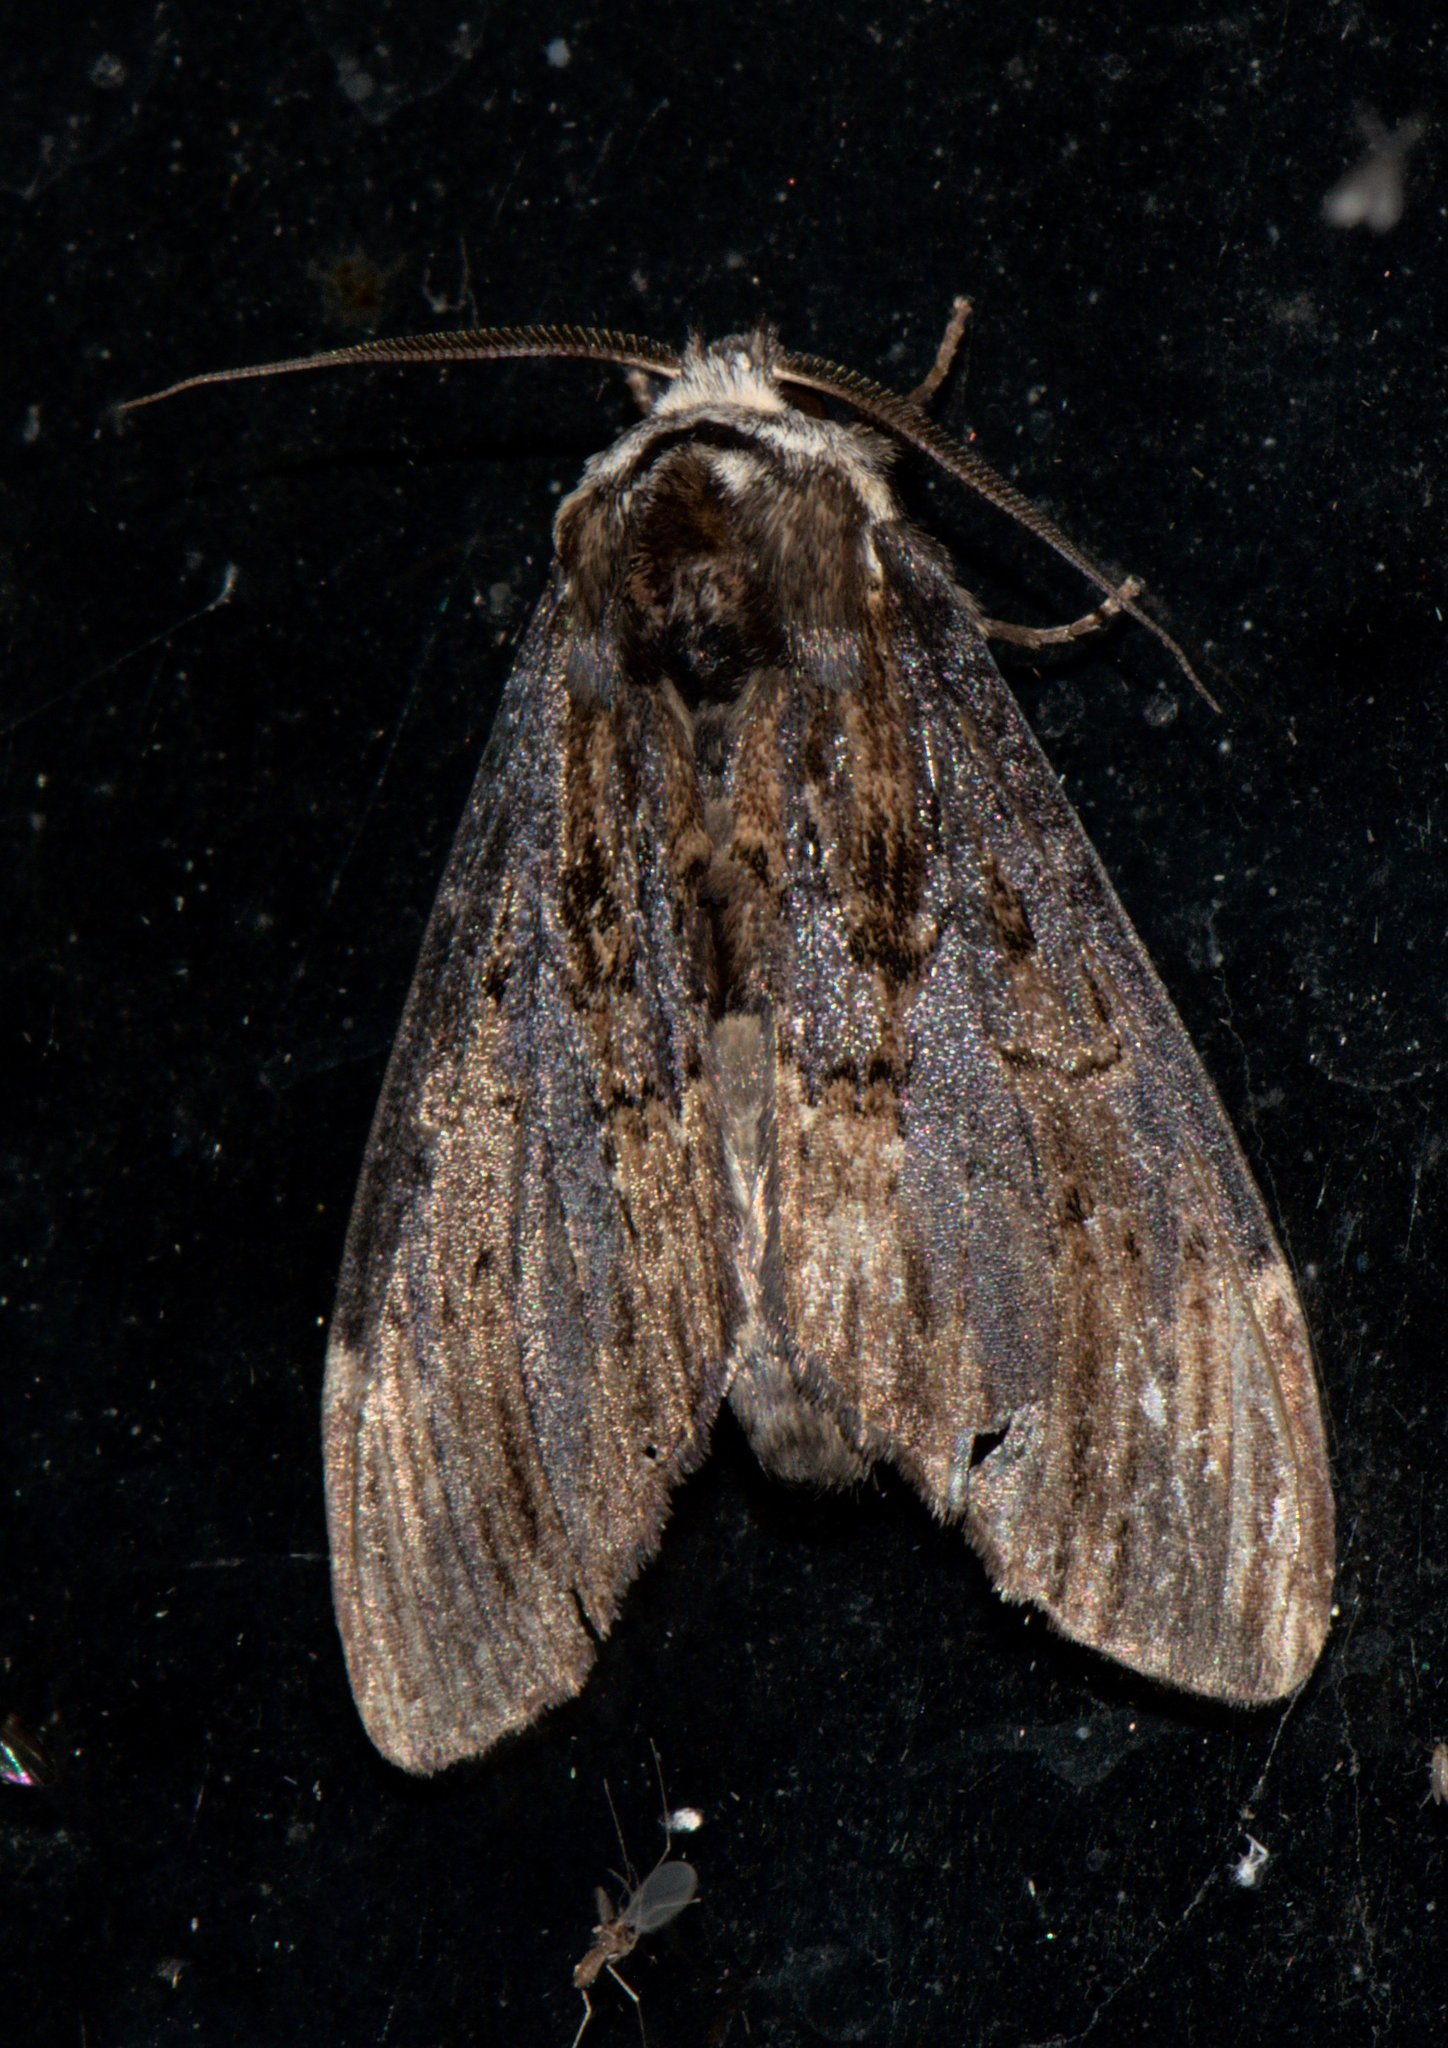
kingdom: Animalia
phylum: Arthropoda
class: Insecta
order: Lepidoptera
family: Notodontidae
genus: Allodonta
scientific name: Allodonta collaris
